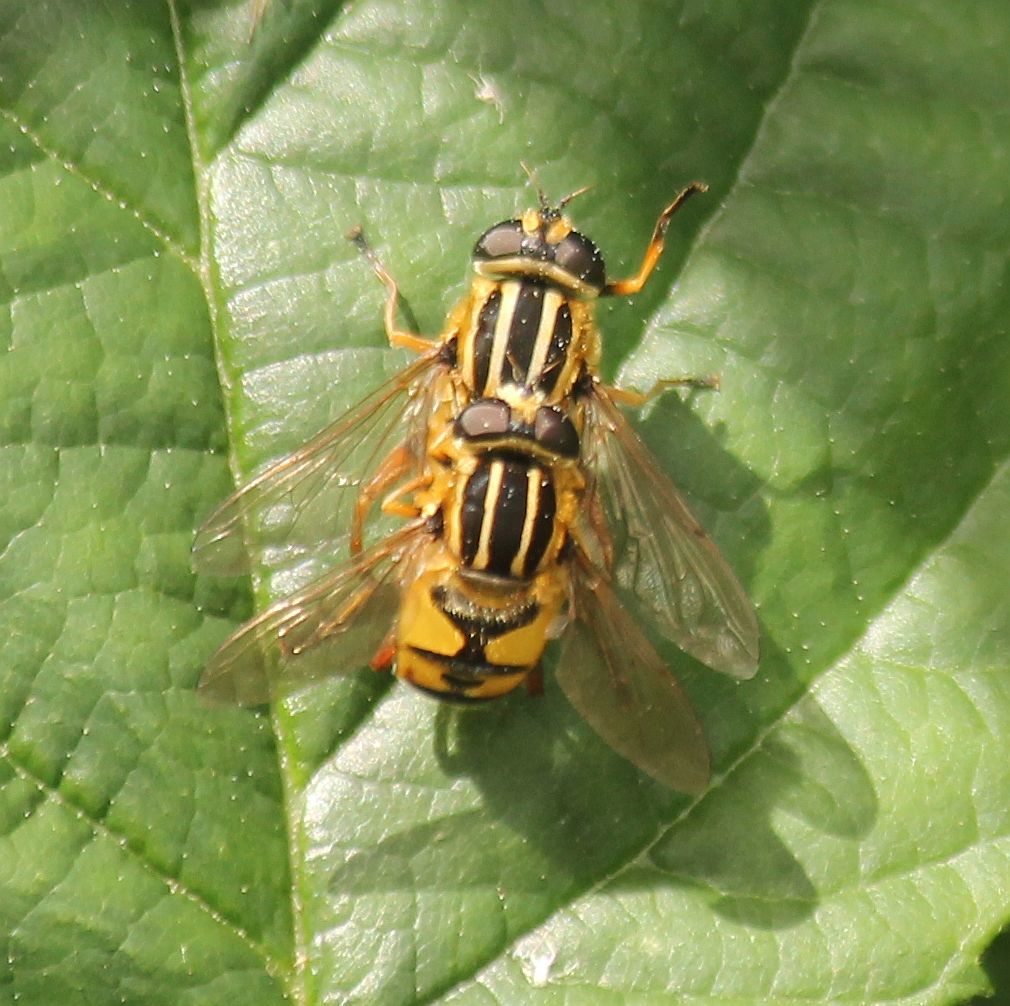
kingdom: Animalia
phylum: Arthropoda
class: Insecta
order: Diptera
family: Syrphidae
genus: Helophilus
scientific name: Helophilus pendulus
